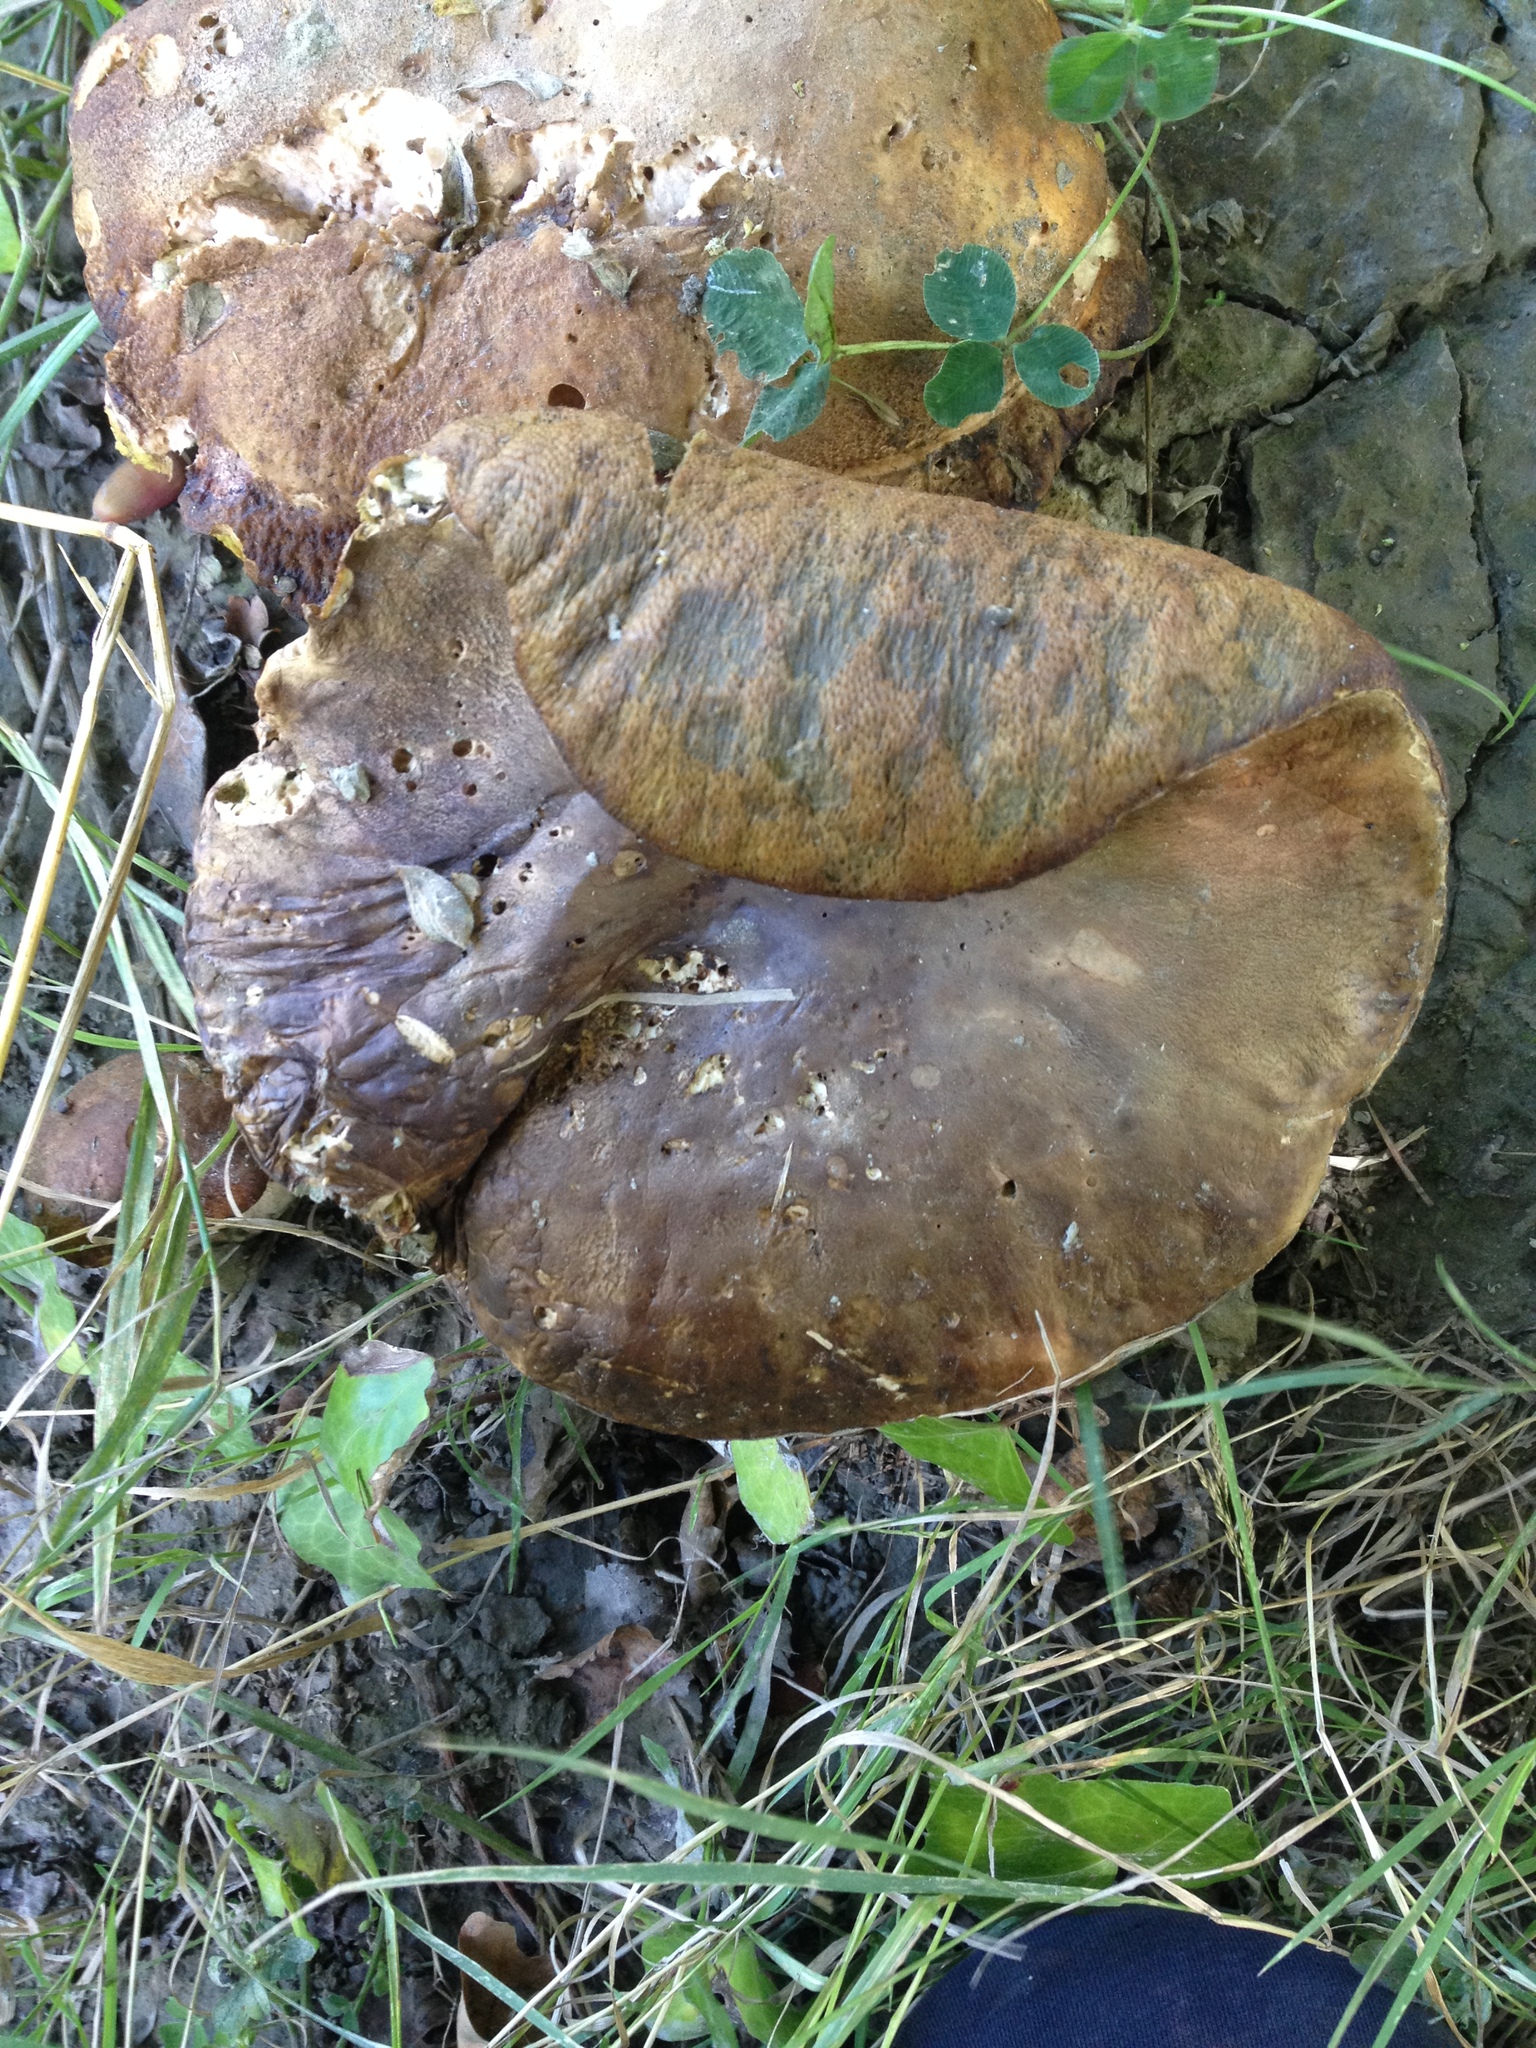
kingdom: Fungi
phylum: Basidiomycota
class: Agaricomycetes
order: Boletales
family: Boletaceae
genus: Boletus
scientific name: Boletus edulis
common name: Cep
